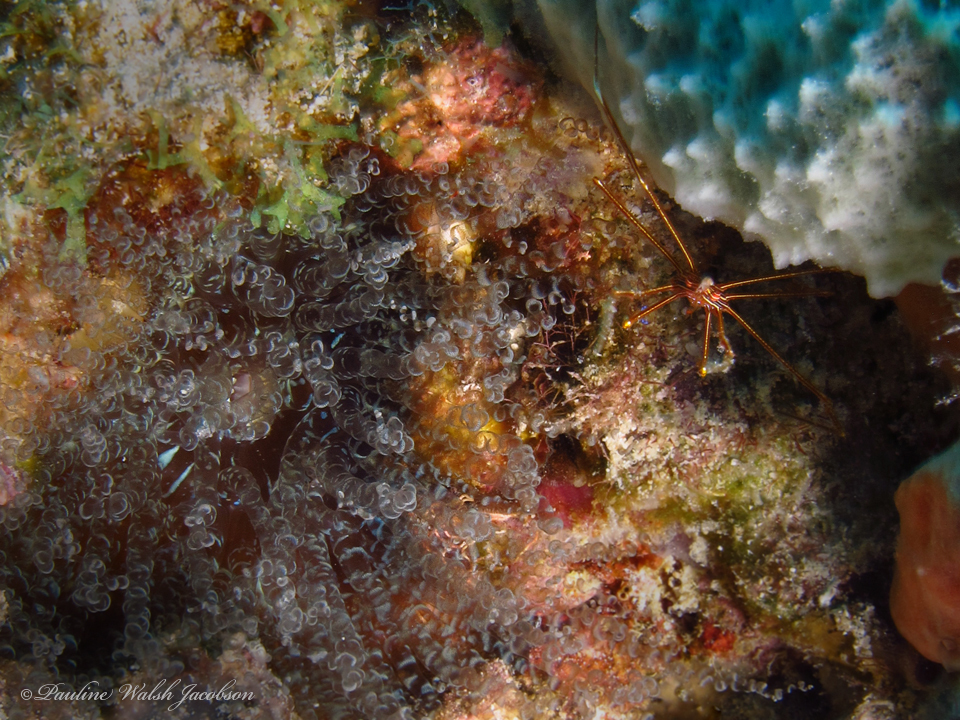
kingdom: Animalia
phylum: Cnidaria
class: Anthozoa
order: Actiniaria
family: Aiptasiidae
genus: Bartholomea
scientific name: Bartholomea annulata
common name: Corkscrew anemone
